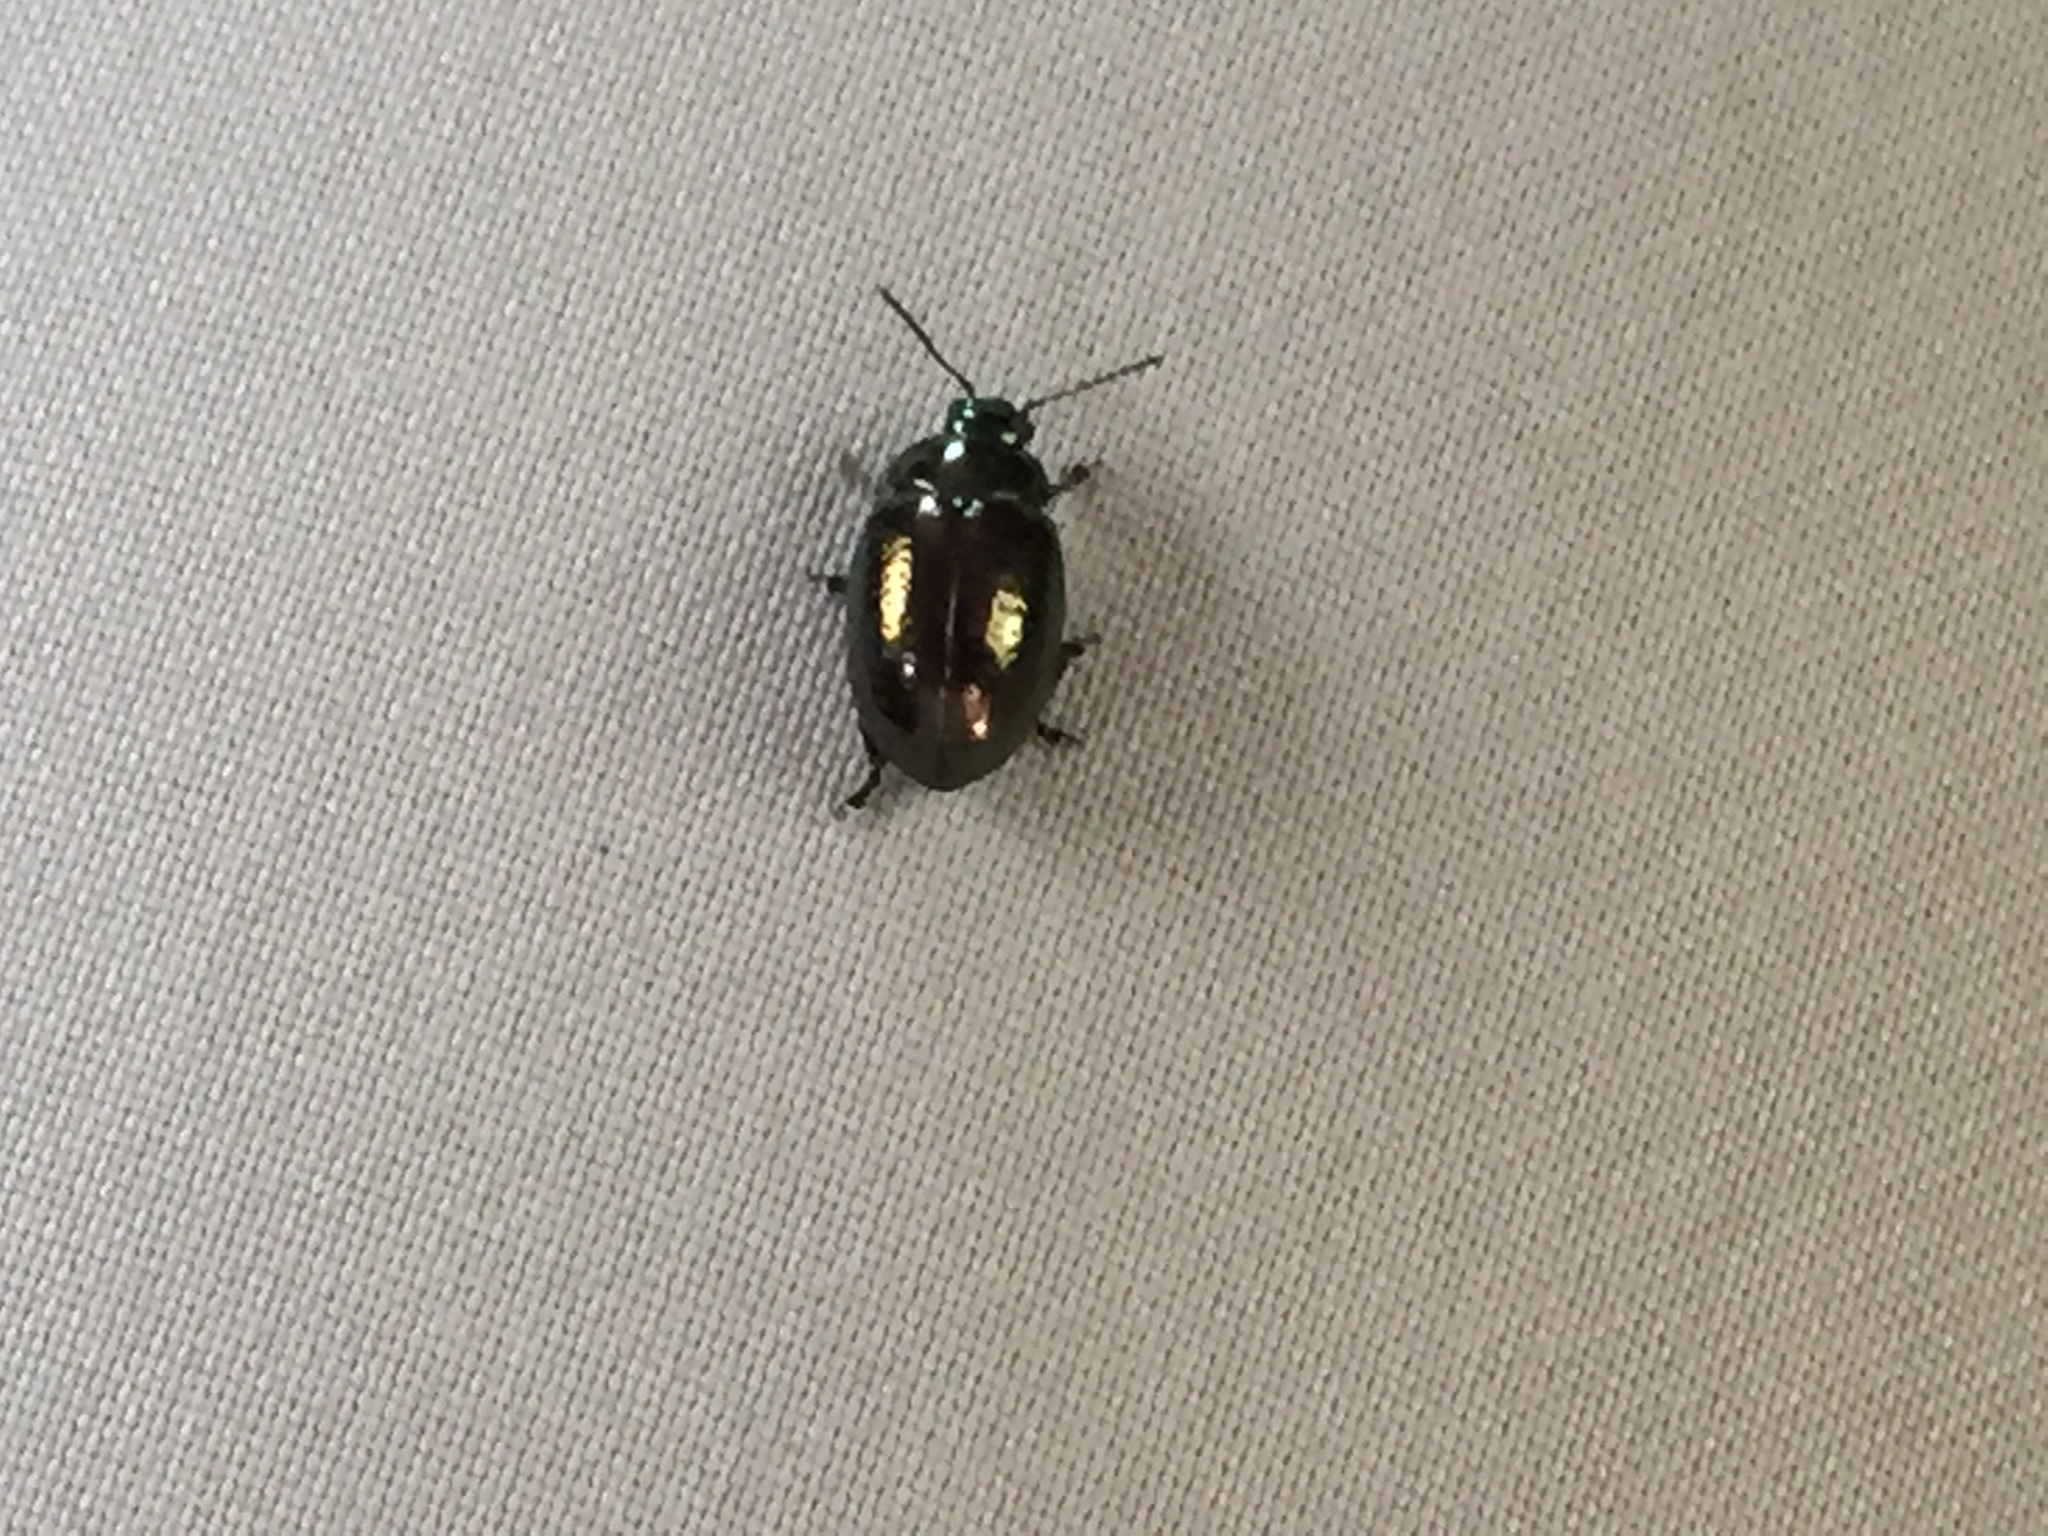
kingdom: Animalia
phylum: Arthropoda
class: Insecta
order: Coleoptera
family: Chrysomelidae
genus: Chrysolina
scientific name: Chrysolina hyperici
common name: St. johnswort beetle
